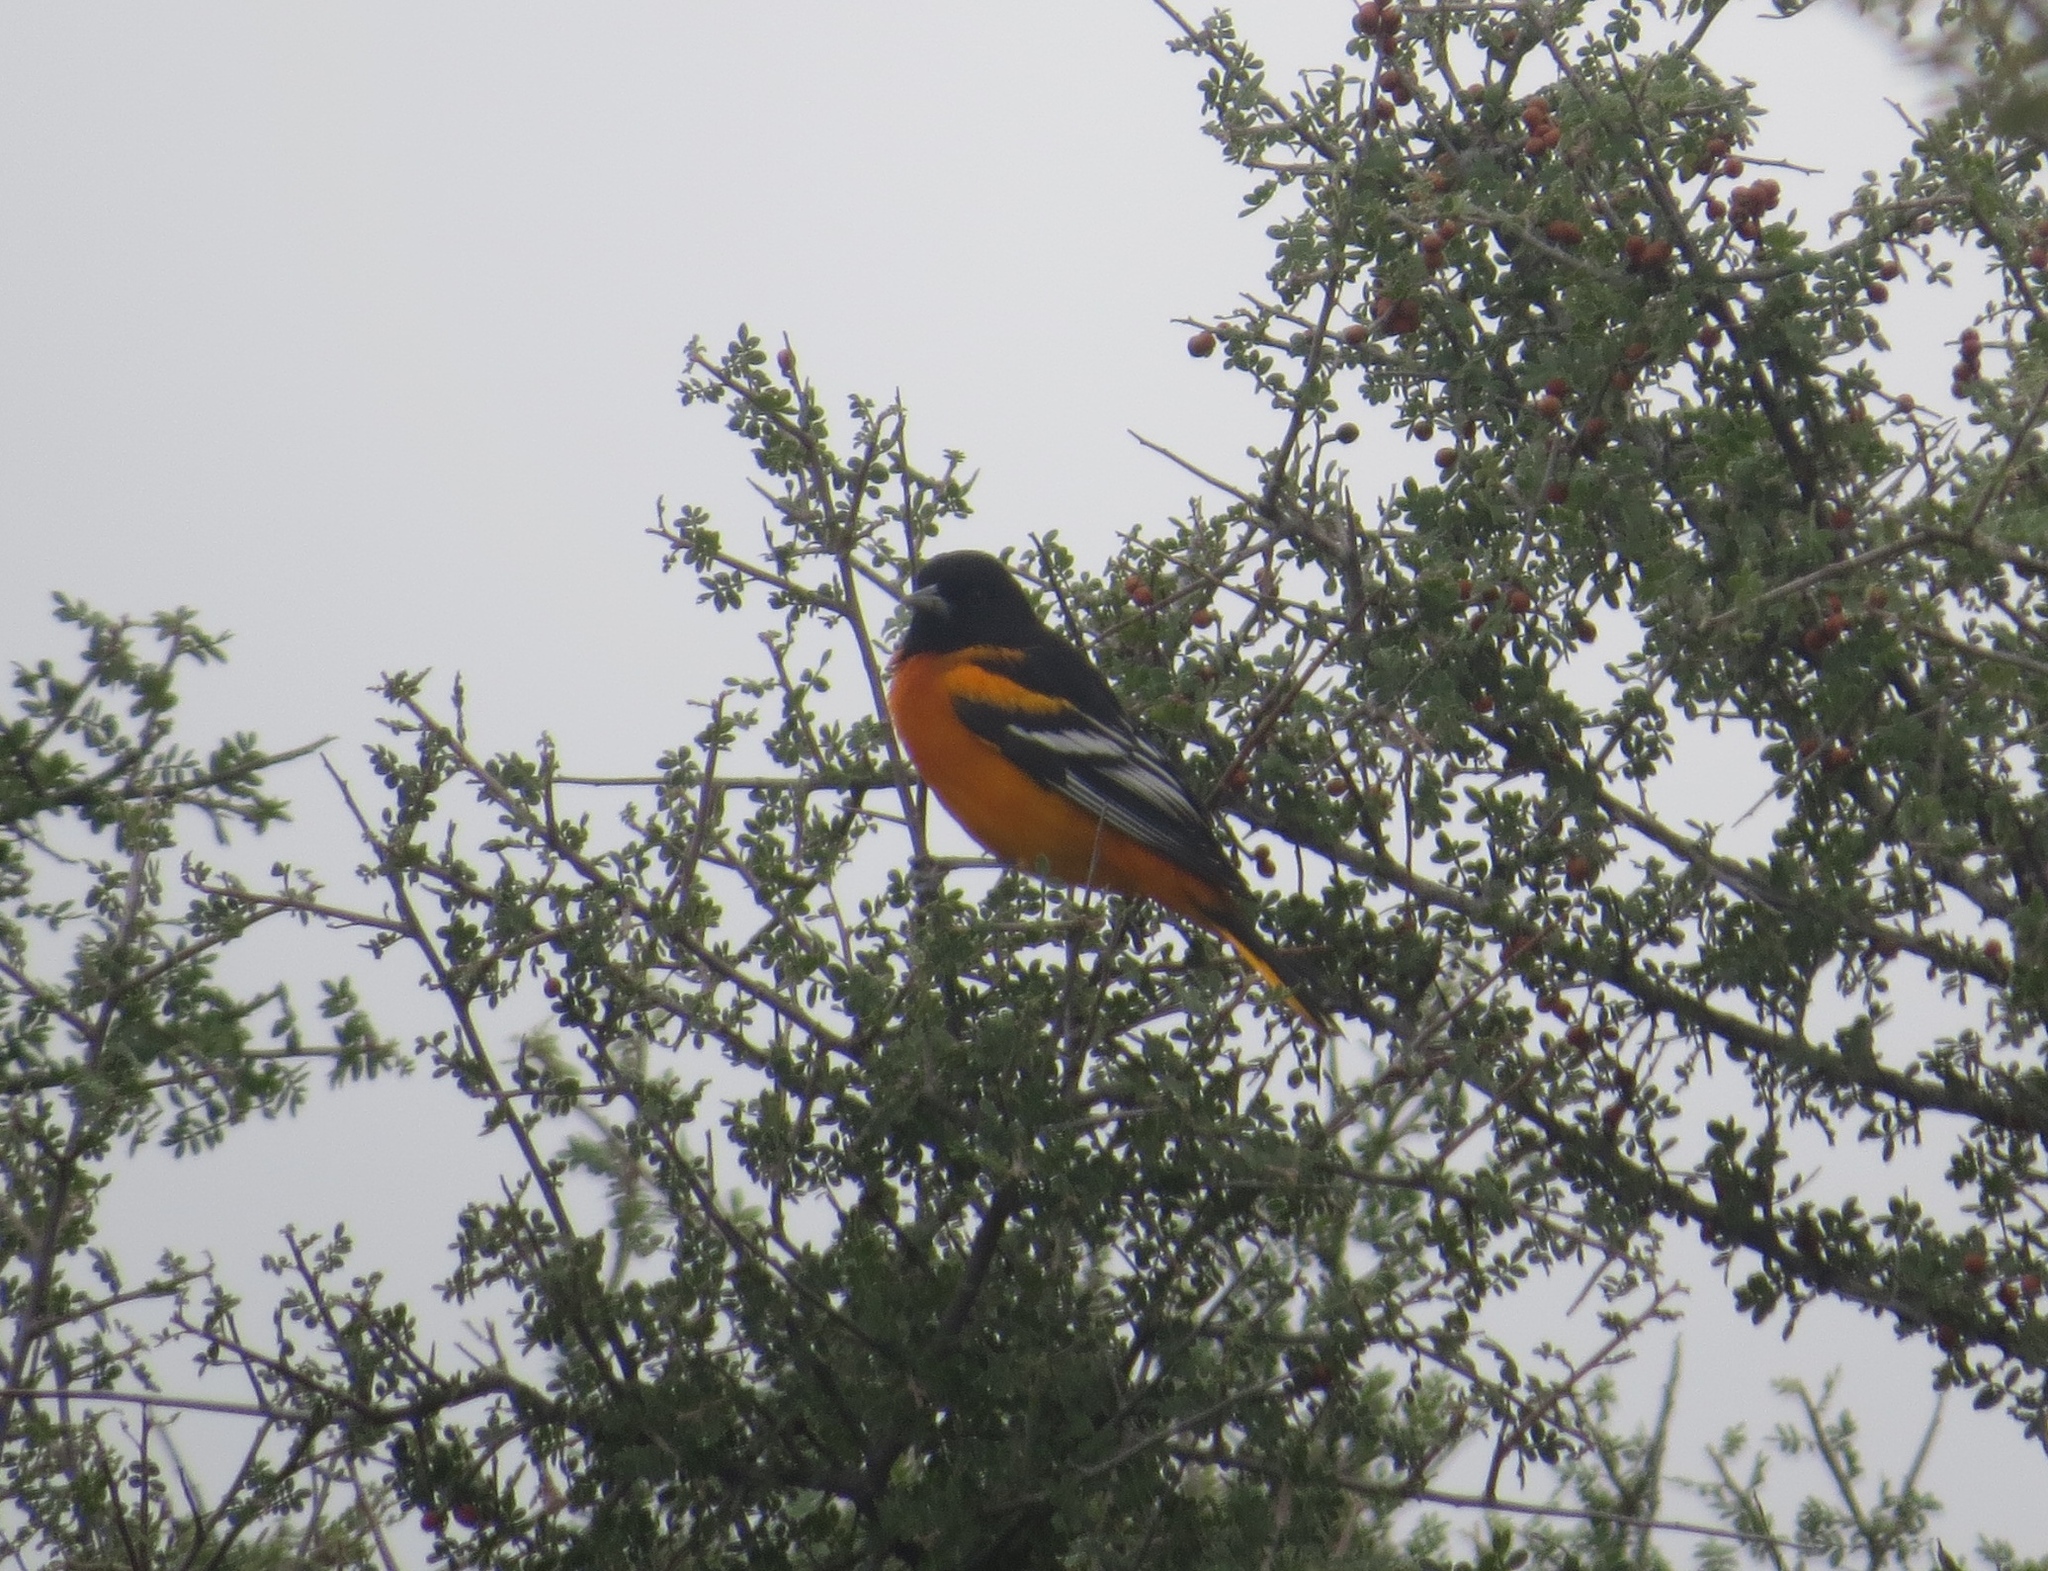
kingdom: Animalia
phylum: Chordata
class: Aves
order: Passeriformes
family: Icteridae
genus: Icterus
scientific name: Icterus galbula
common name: Baltimore oriole
